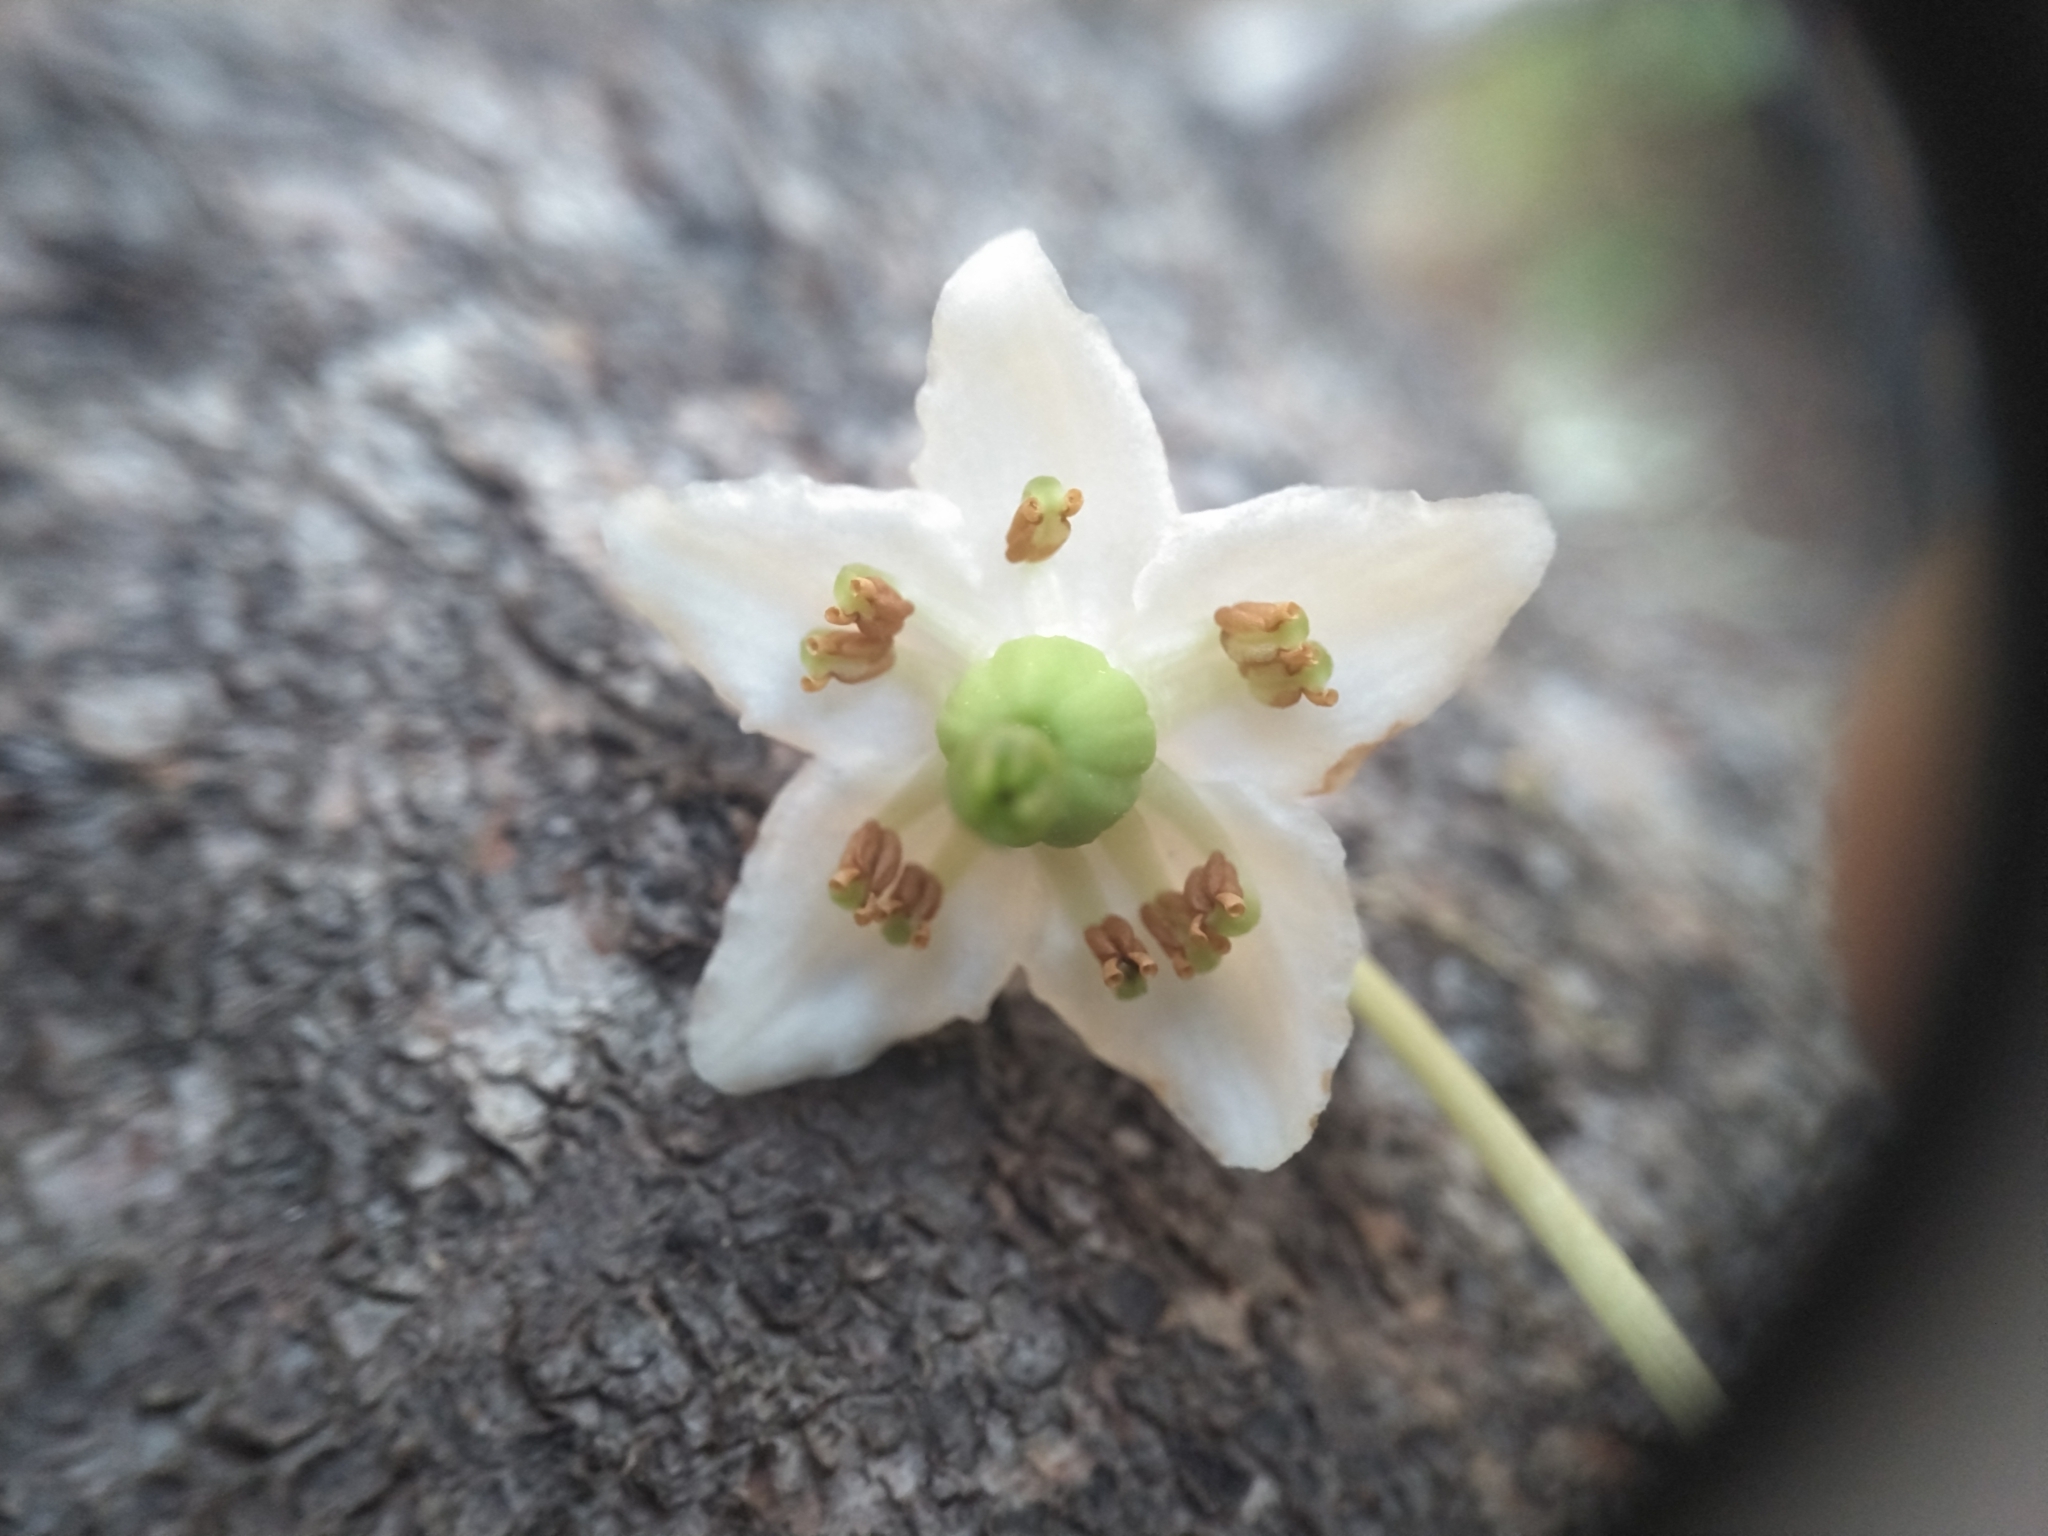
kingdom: Plantae
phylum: Tracheophyta
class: Magnoliopsida
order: Ericales
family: Ericaceae
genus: Moneses
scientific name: Moneses uniflora
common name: One-flowered wintergreen
